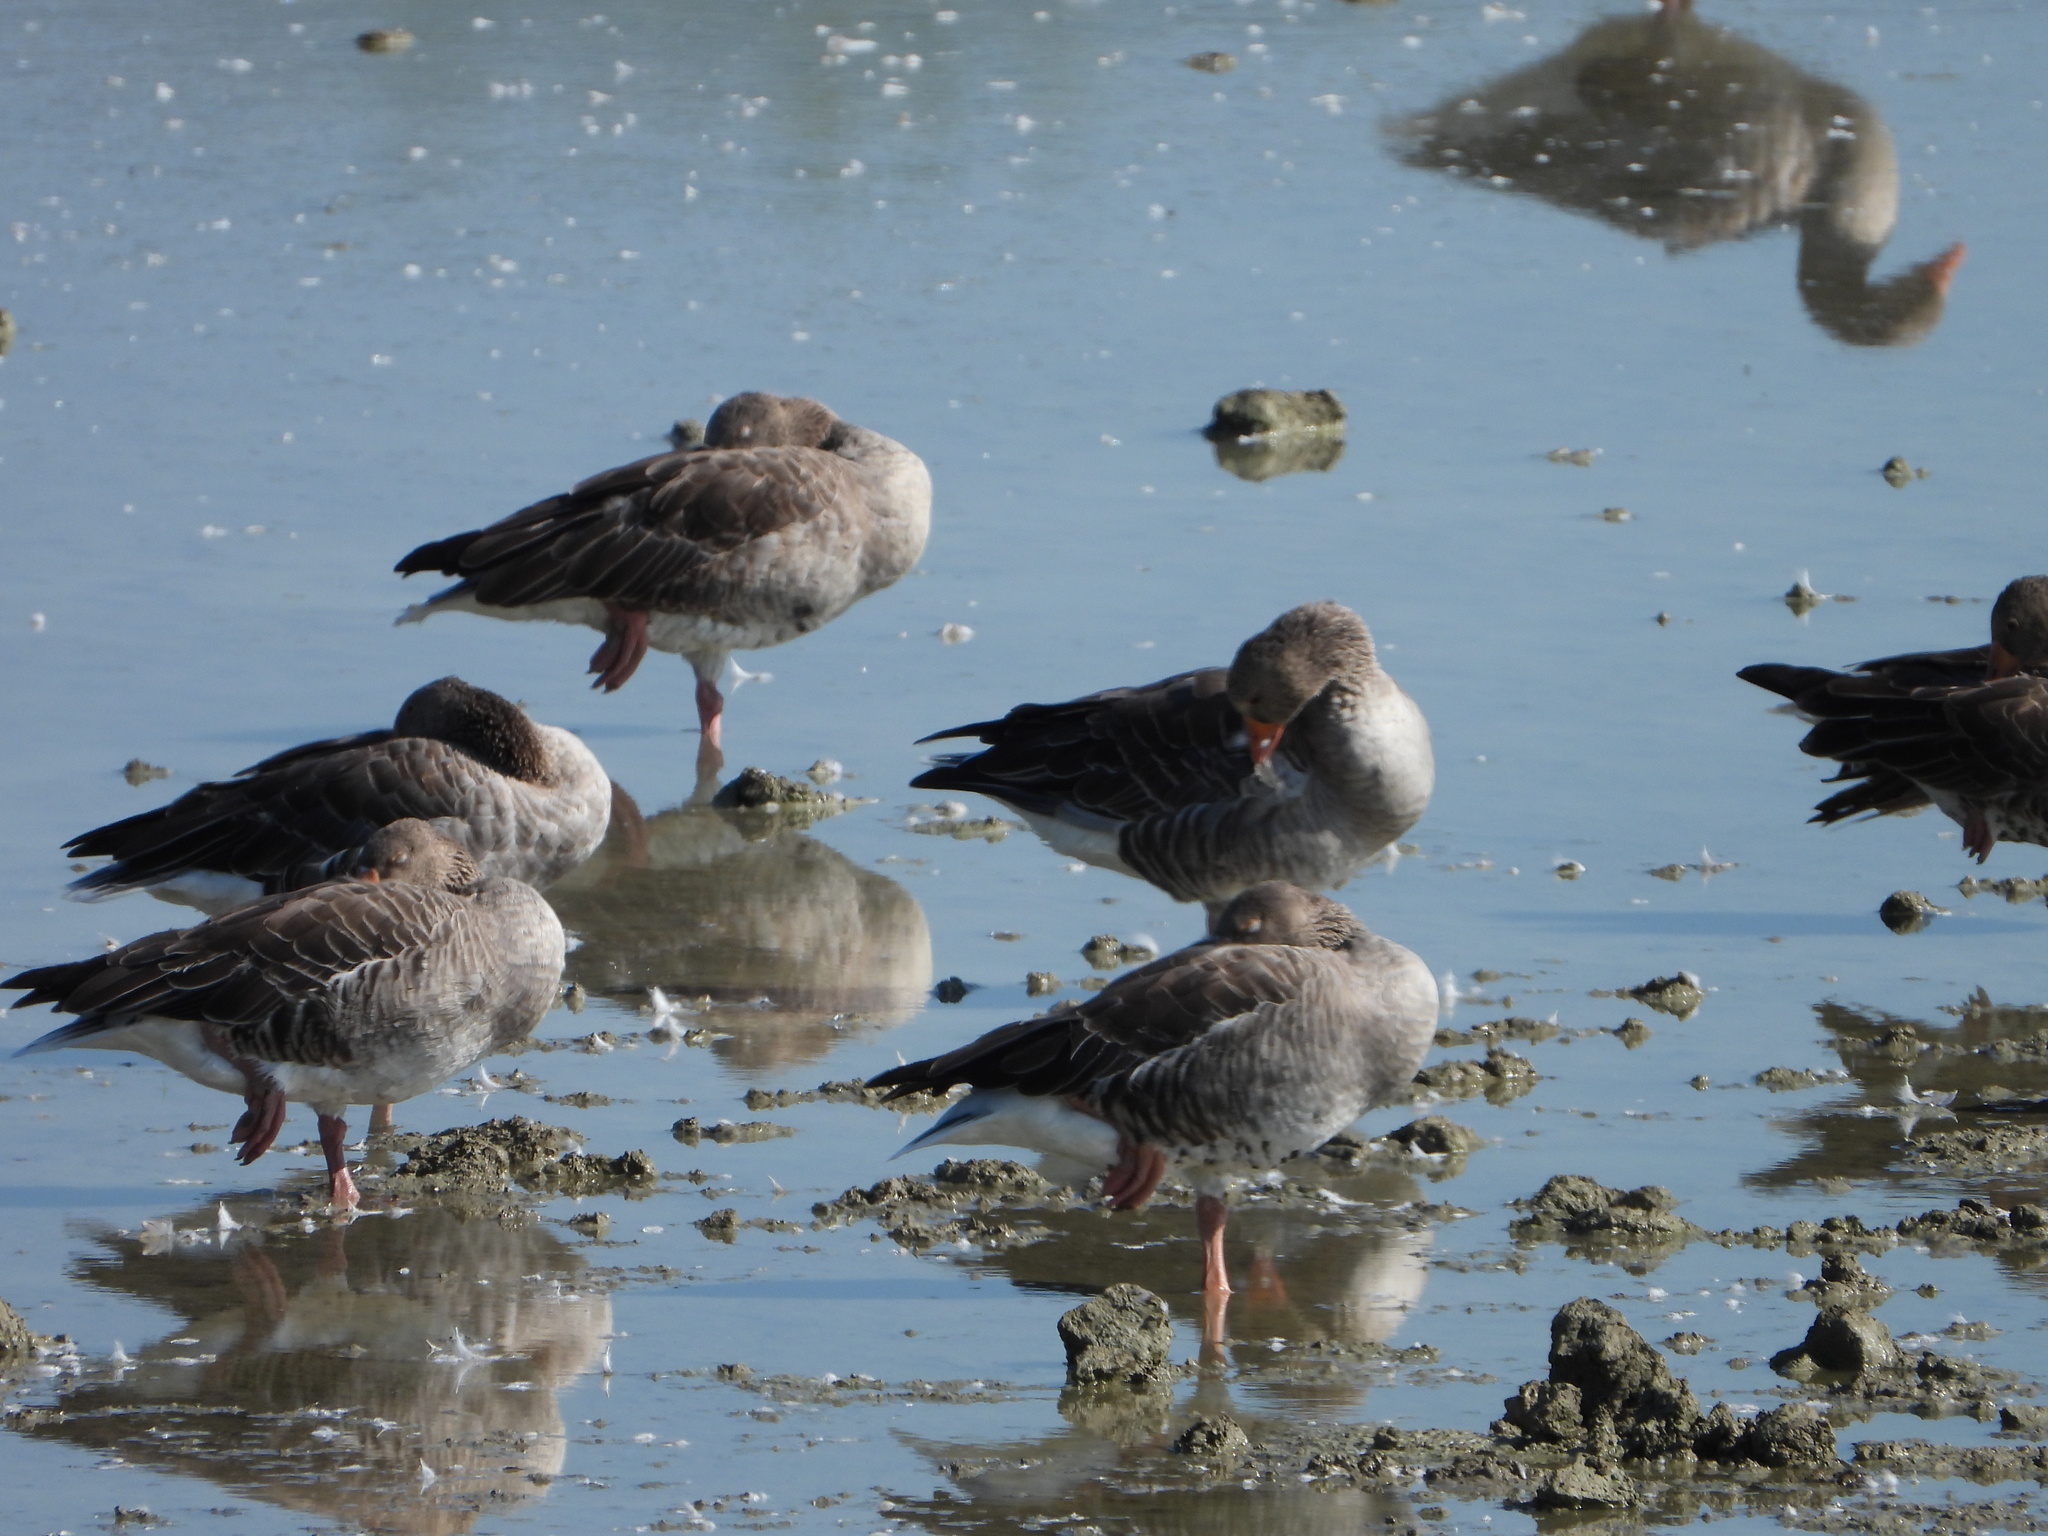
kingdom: Animalia
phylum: Chordata
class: Aves
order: Anseriformes
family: Anatidae
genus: Anser
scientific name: Anser anser
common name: Greylag goose
